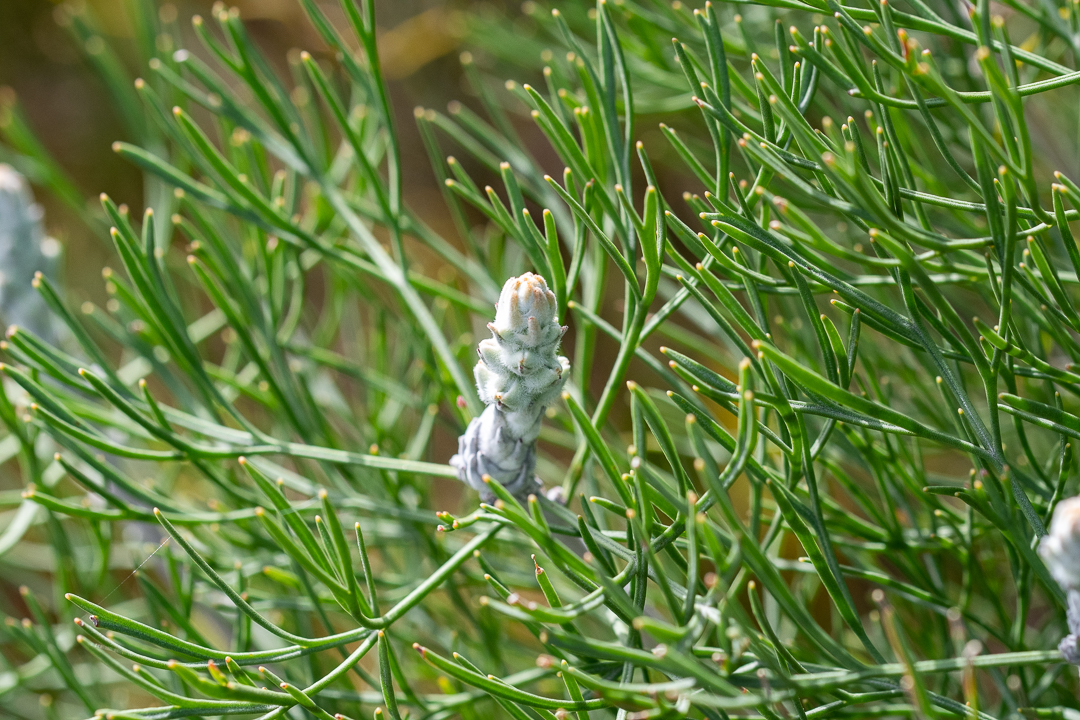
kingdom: Plantae
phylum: Tracheophyta
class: Magnoliopsida
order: Proteales
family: Proteaceae
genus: Paranomus
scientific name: Paranomus spicatus
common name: Kogelberg sceptre
